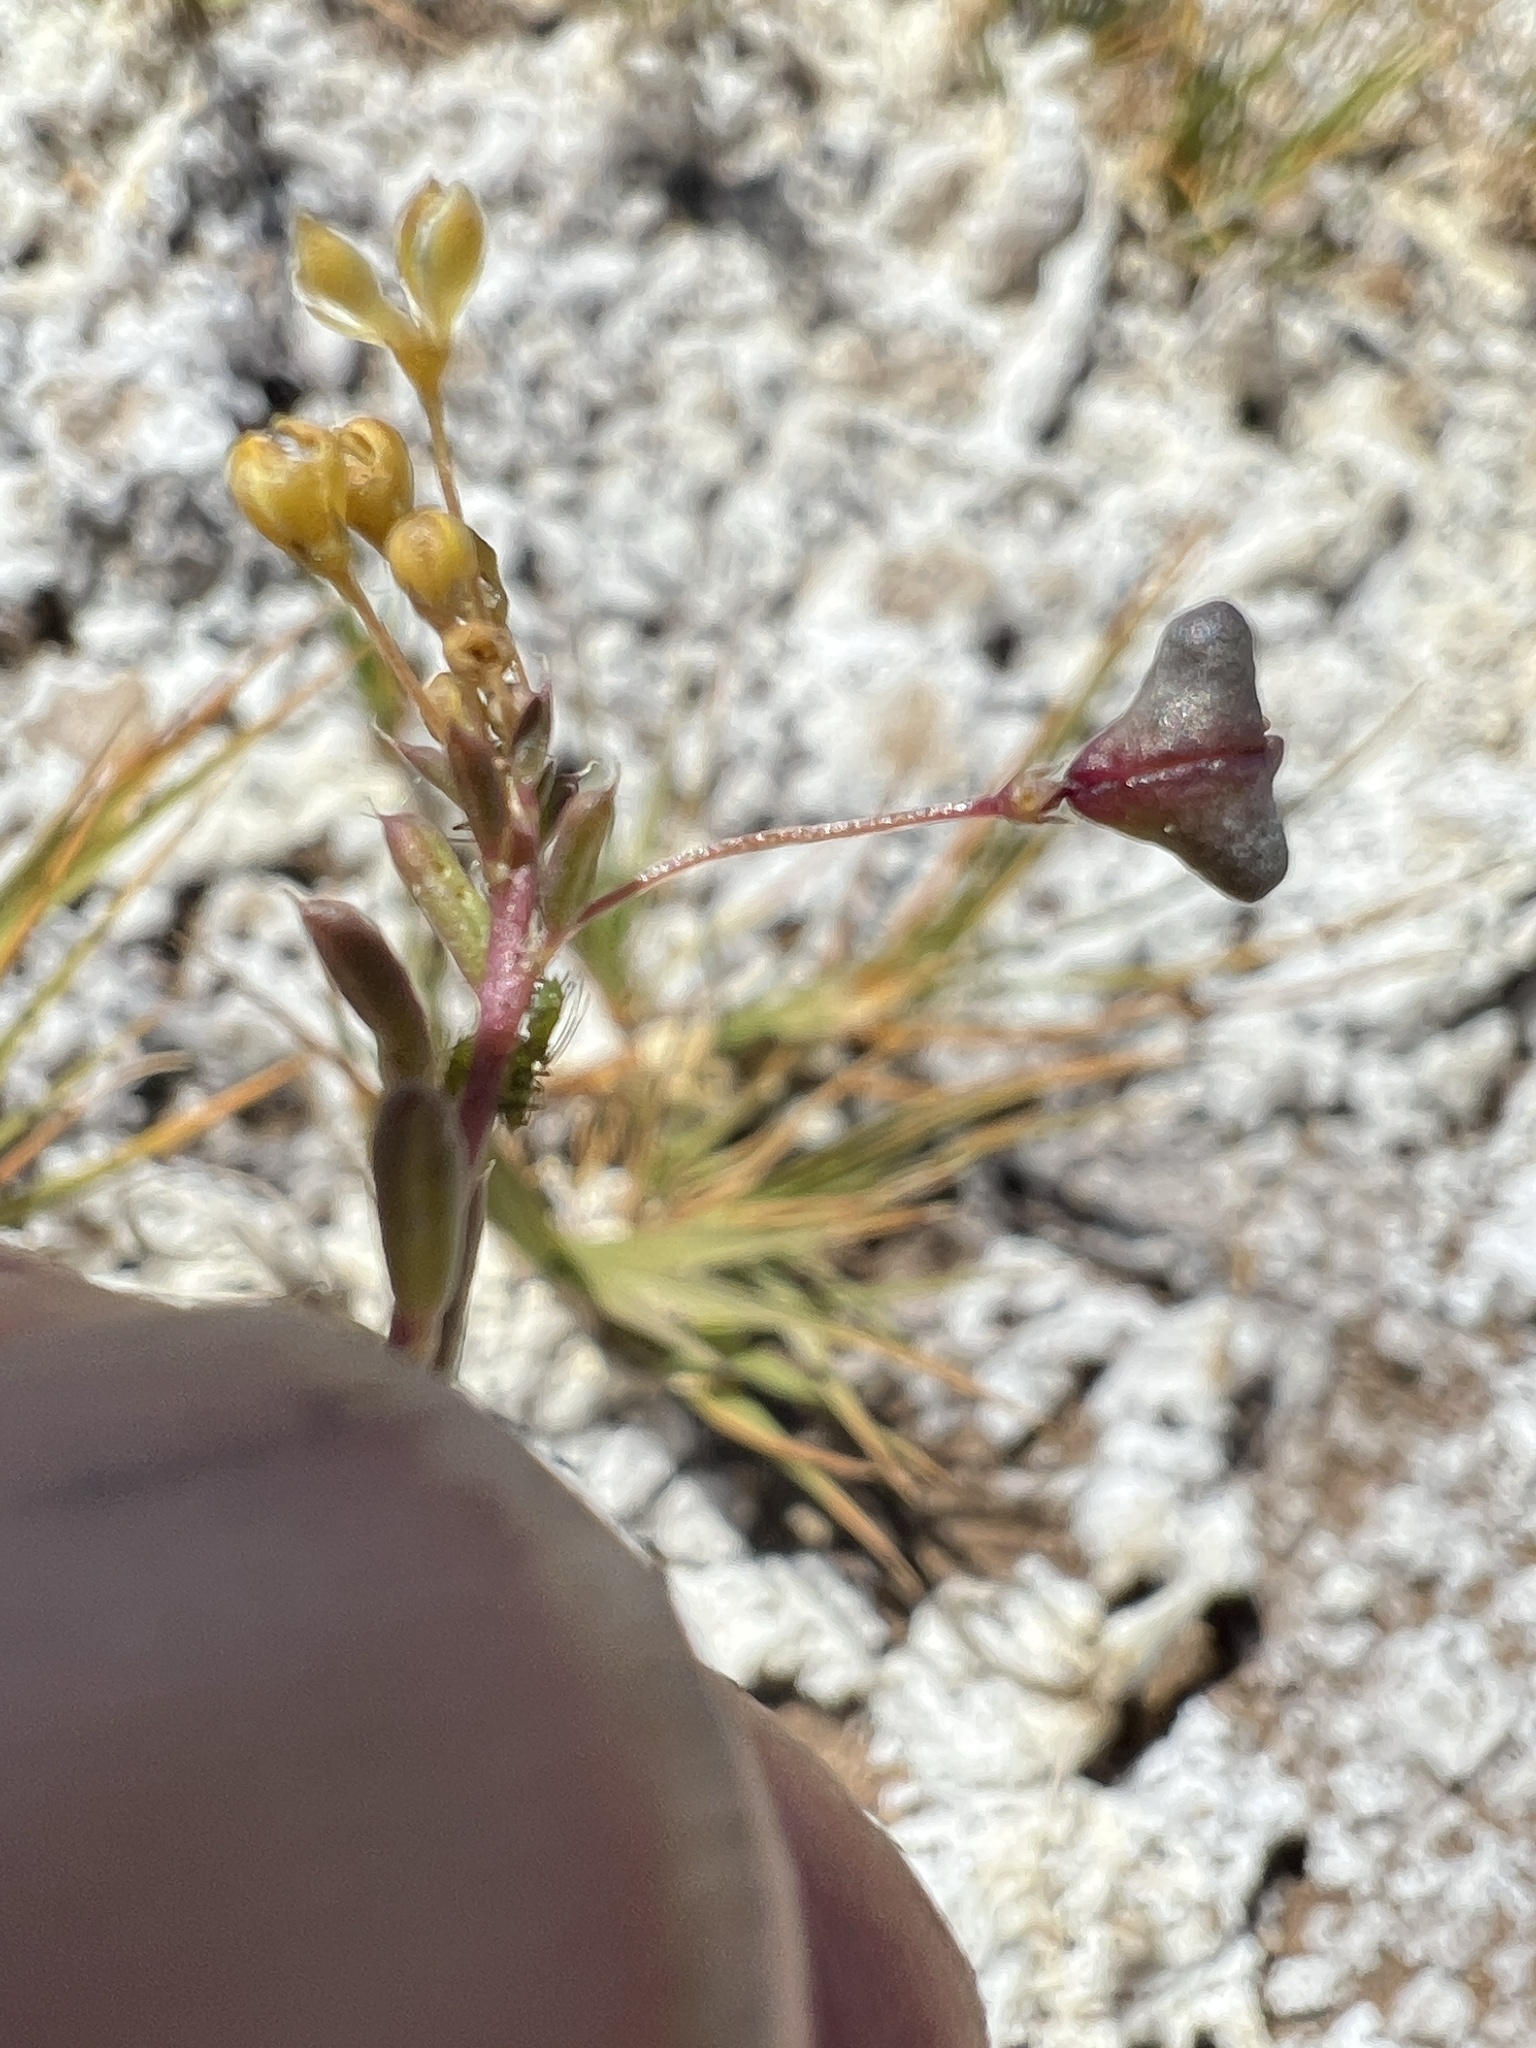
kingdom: Plantae
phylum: Tracheophyta
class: Magnoliopsida
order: Brassicales
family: Cleomaceae
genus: Cleomella
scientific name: Cleomella parviflora
